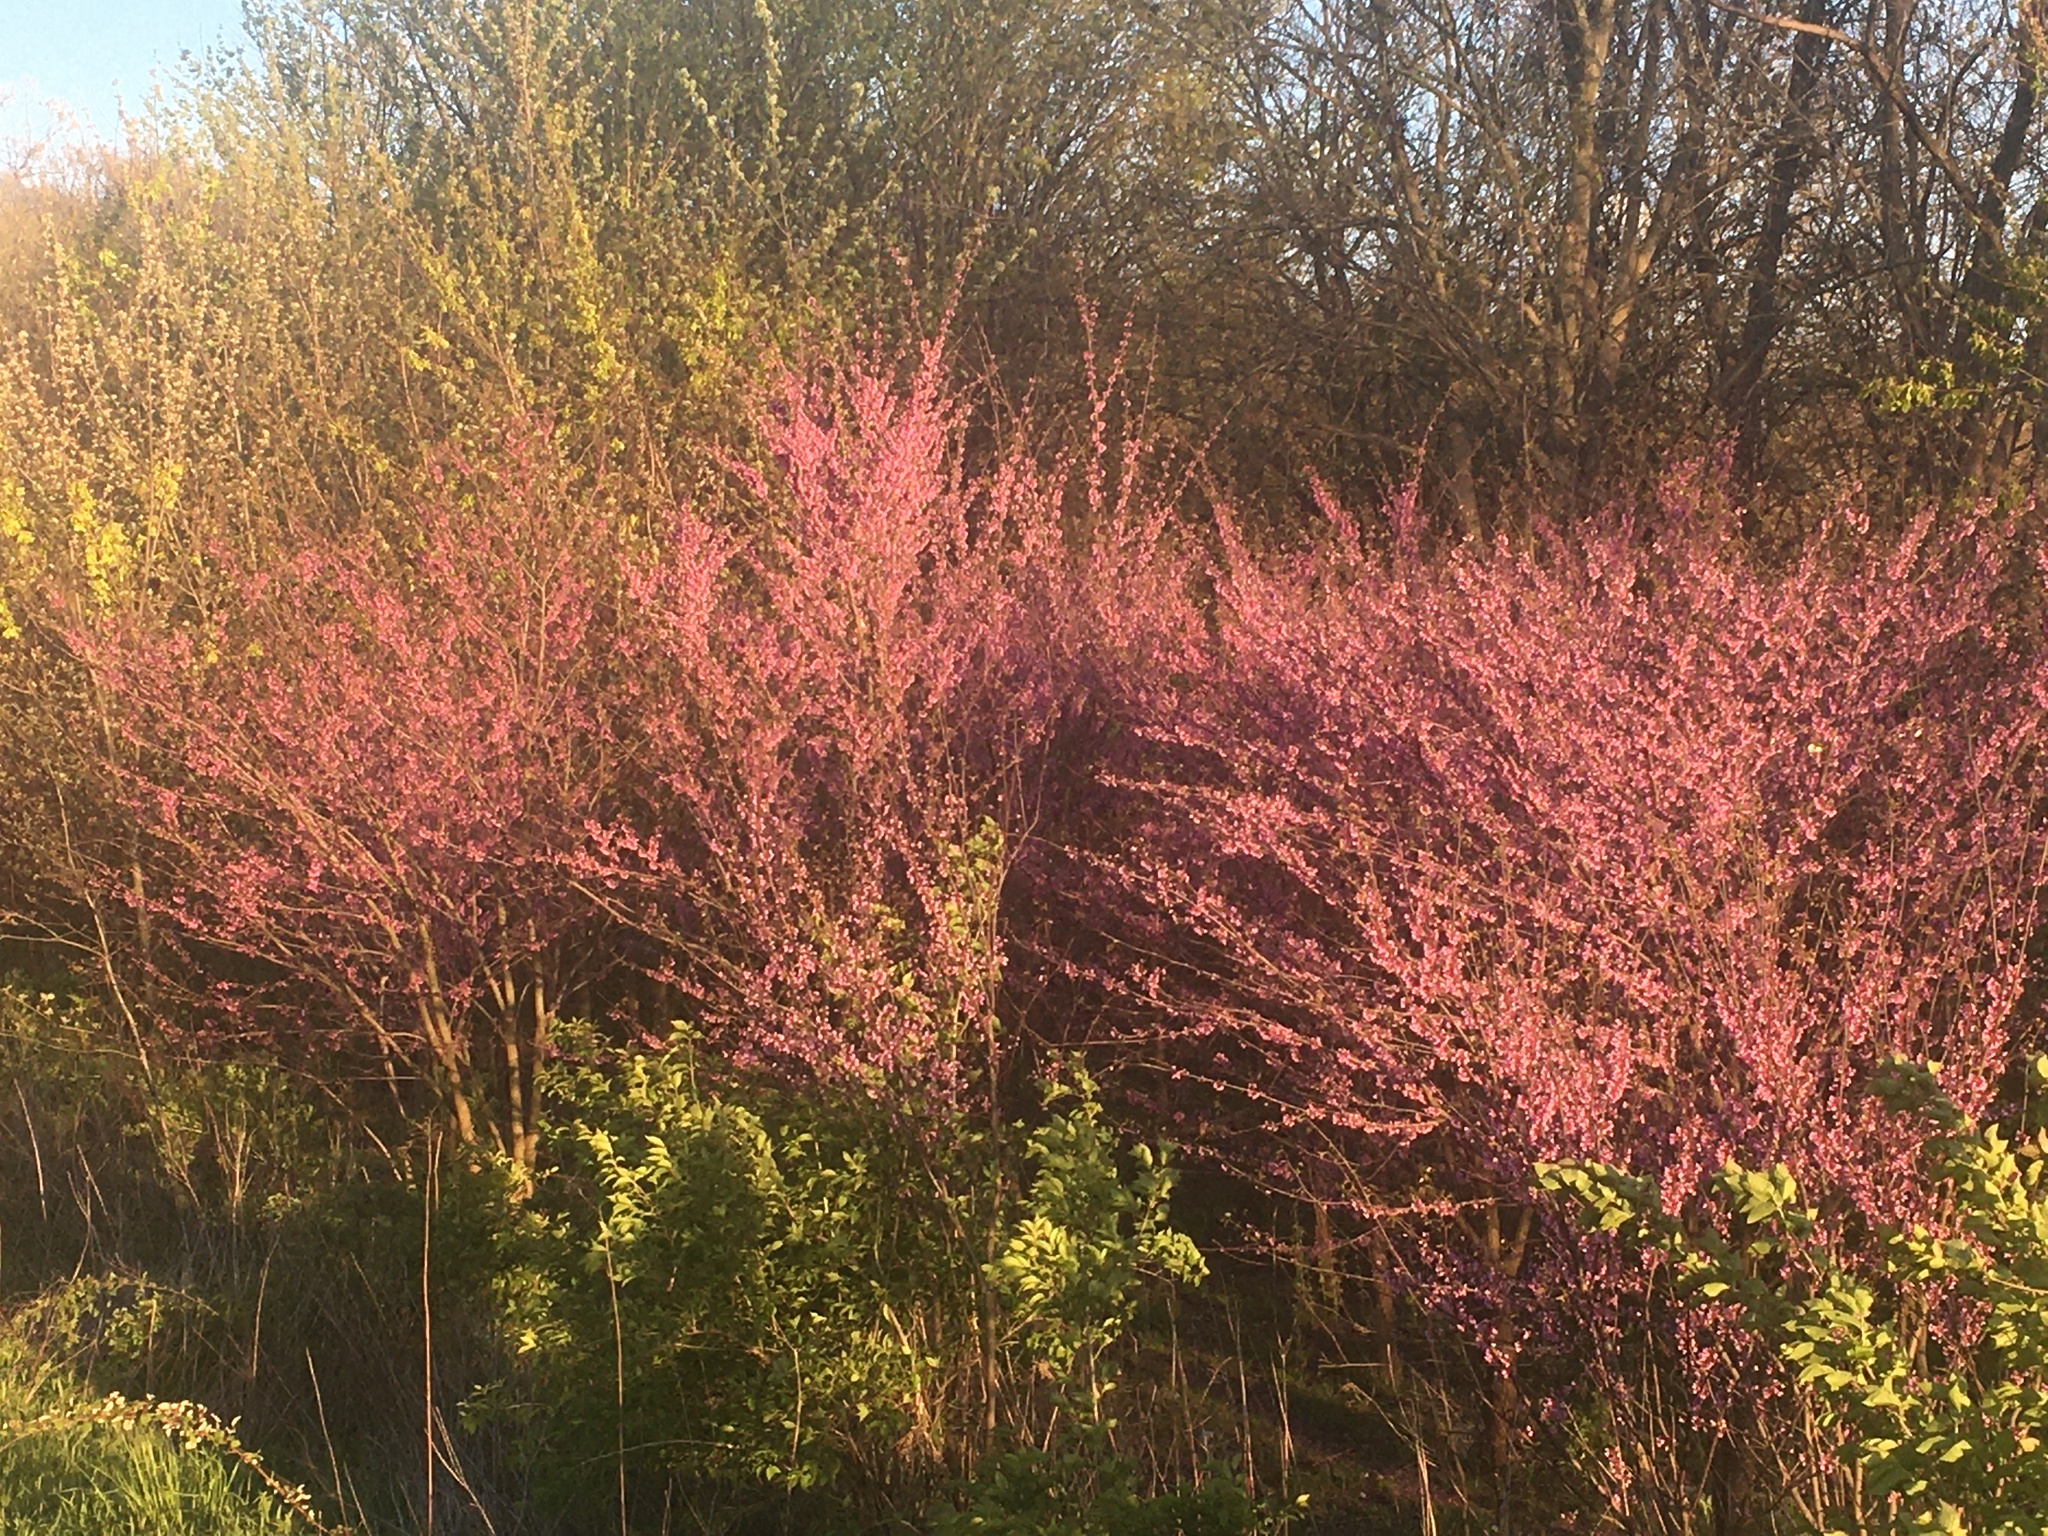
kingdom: Plantae
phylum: Tracheophyta
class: Magnoliopsida
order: Fabales
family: Fabaceae
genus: Cercis
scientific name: Cercis canadensis
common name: Eastern redbud
